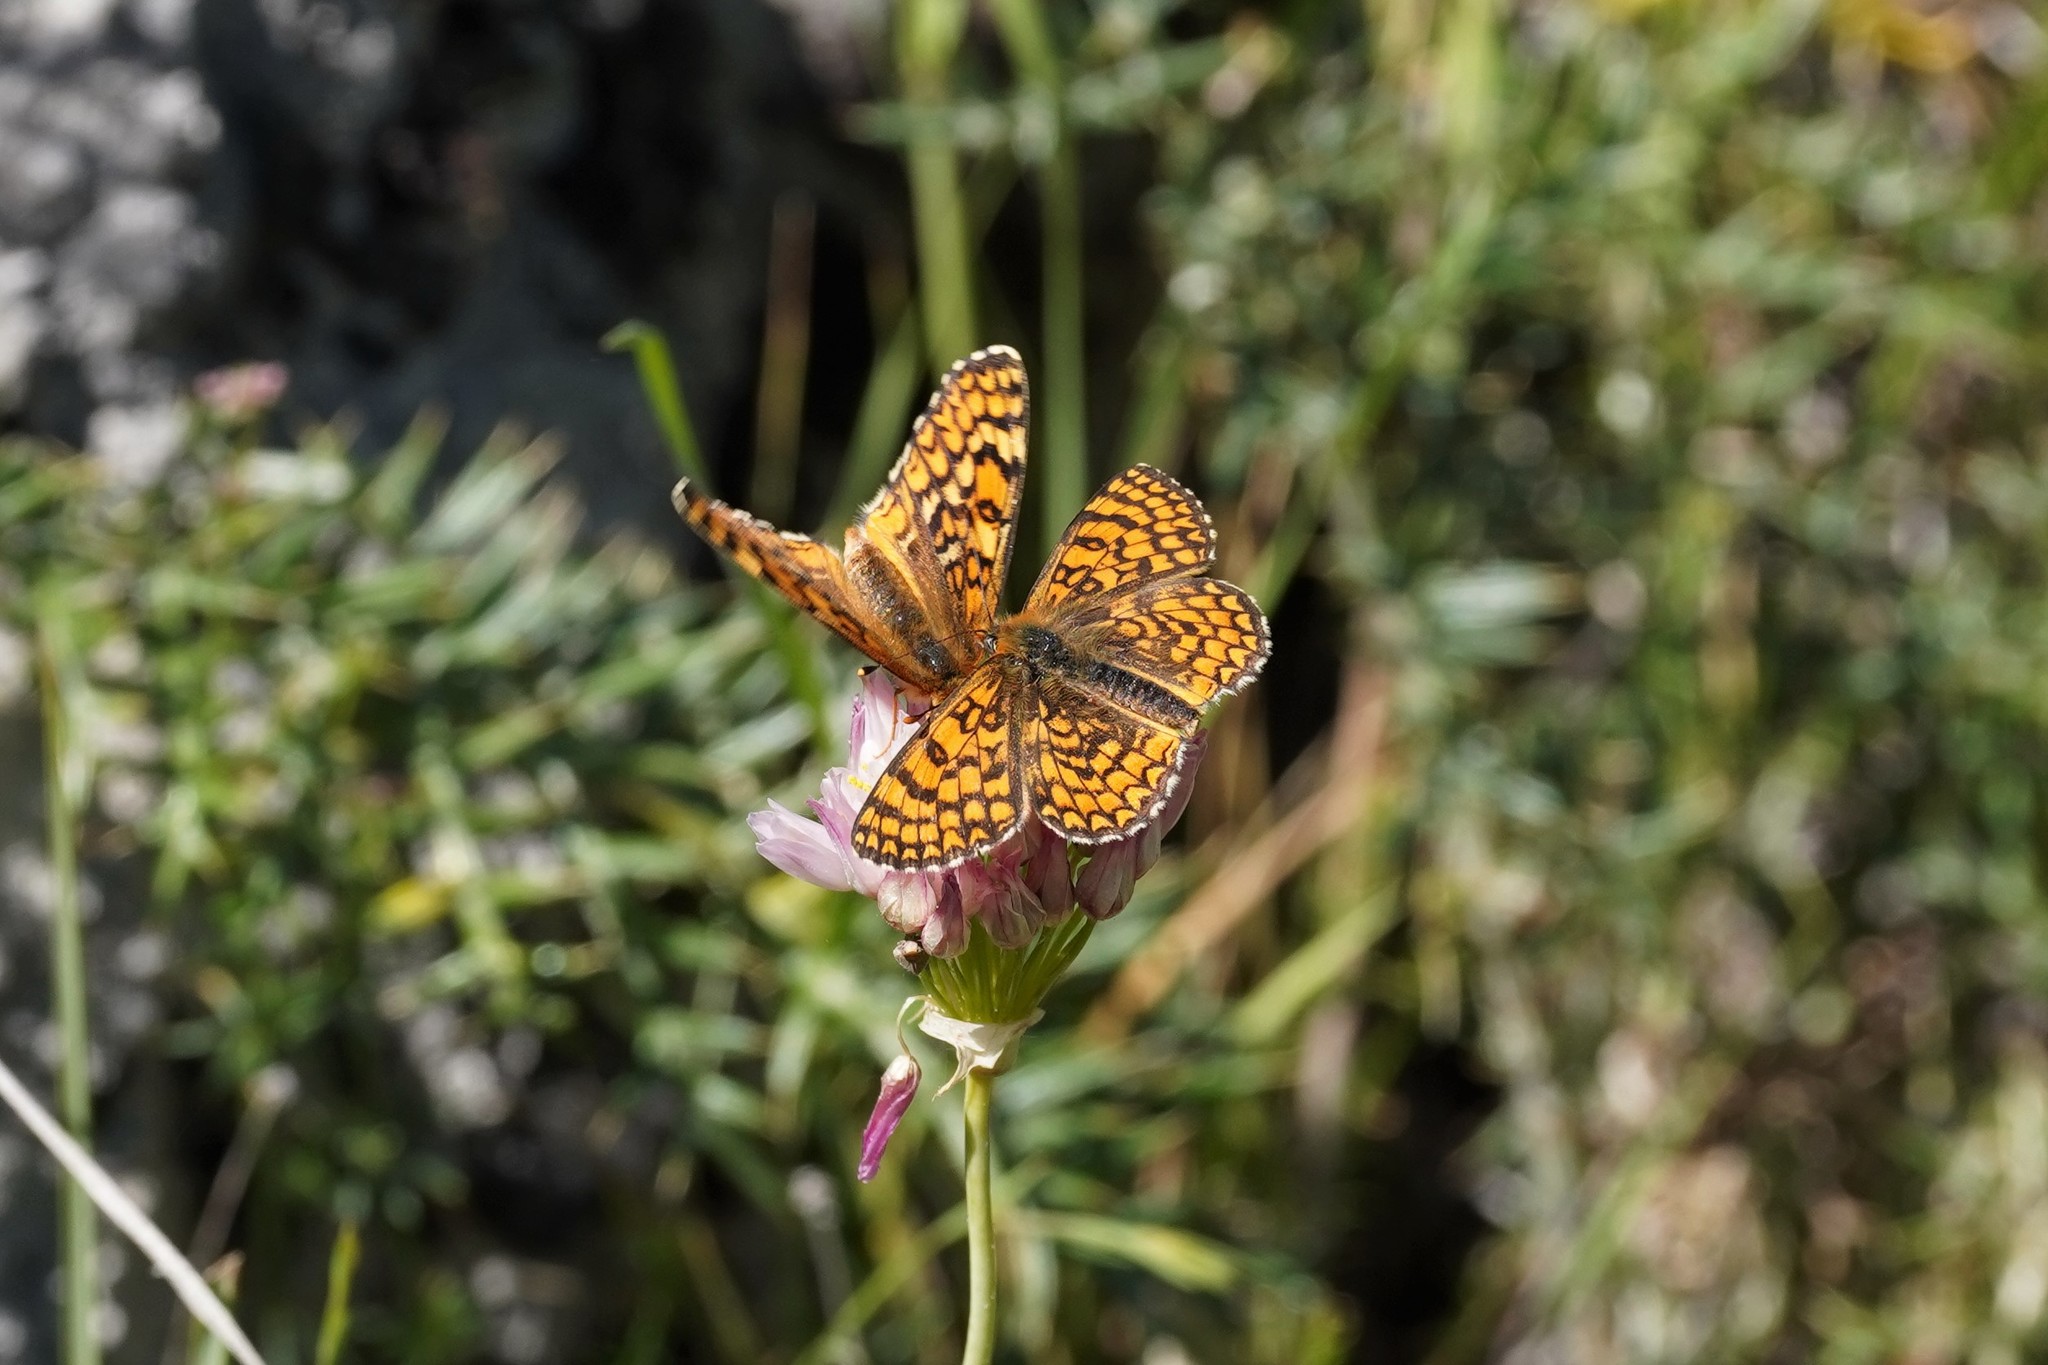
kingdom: Animalia
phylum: Arthropoda
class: Insecta
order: Lepidoptera
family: Nymphalidae
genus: Melitaea
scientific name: Melitaea deione
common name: Provençal fritillary
